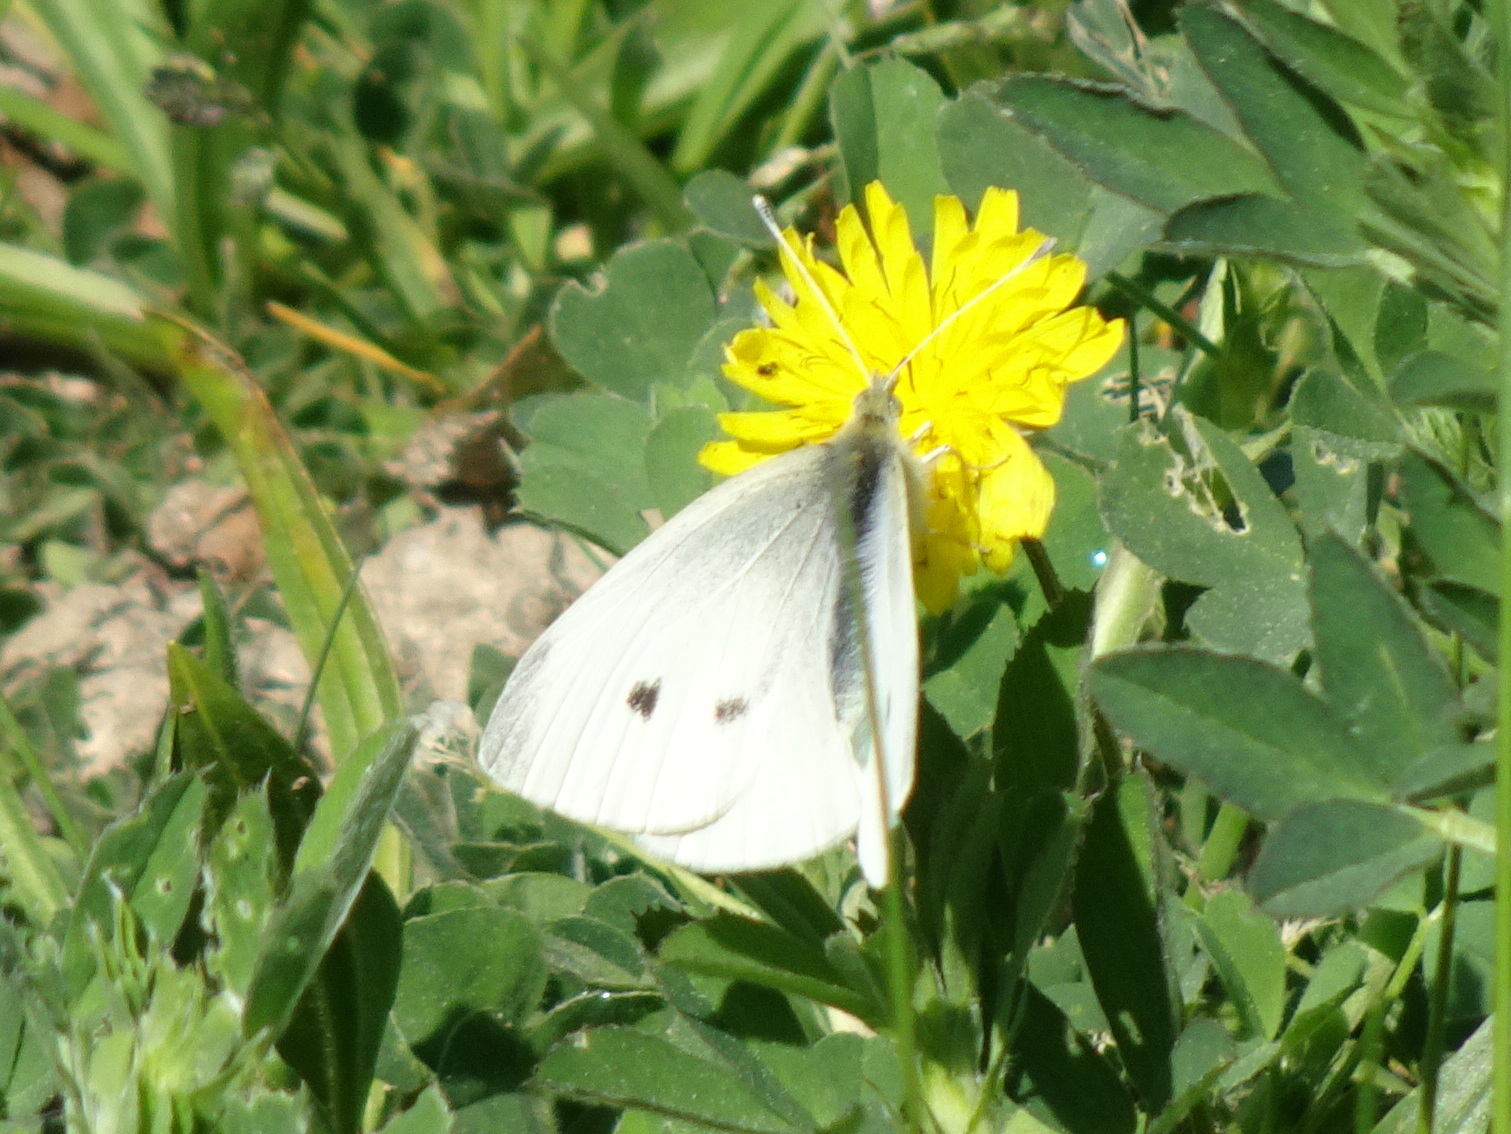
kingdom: Animalia
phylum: Arthropoda
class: Insecta
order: Lepidoptera
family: Pieridae
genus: Pieris
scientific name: Pieris rapae
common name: Small white
